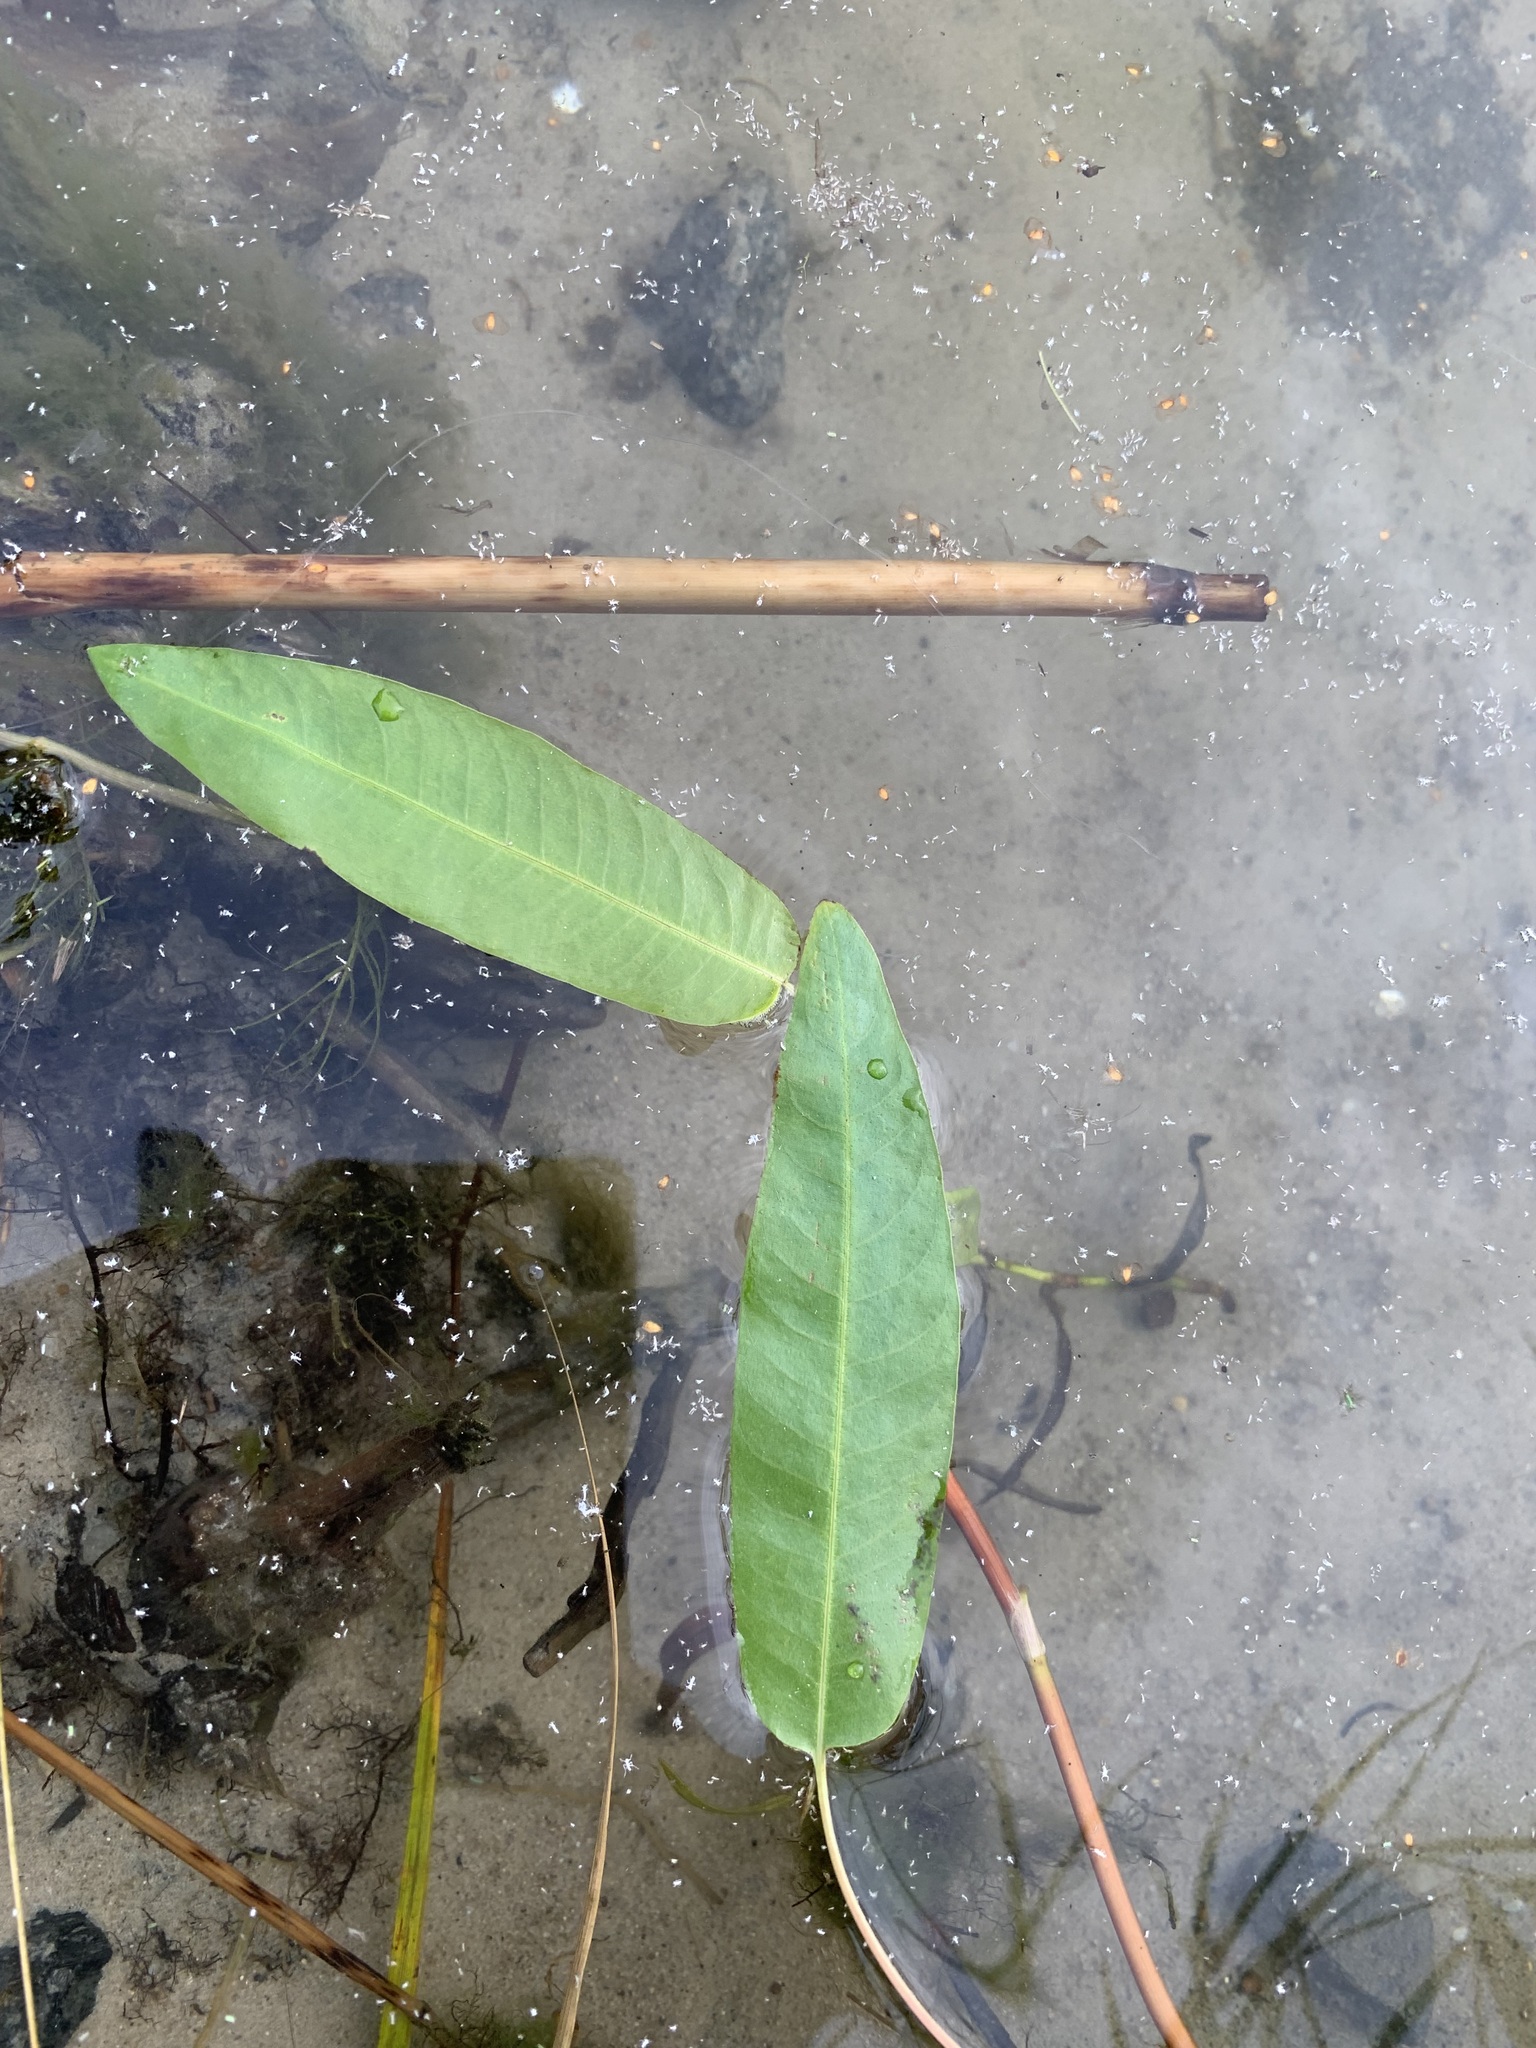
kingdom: Plantae
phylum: Tracheophyta
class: Magnoliopsida
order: Caryophyllales
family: Polygonaceae
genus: Persicaria
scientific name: Persicaria amphibia
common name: Amphibious bistort
